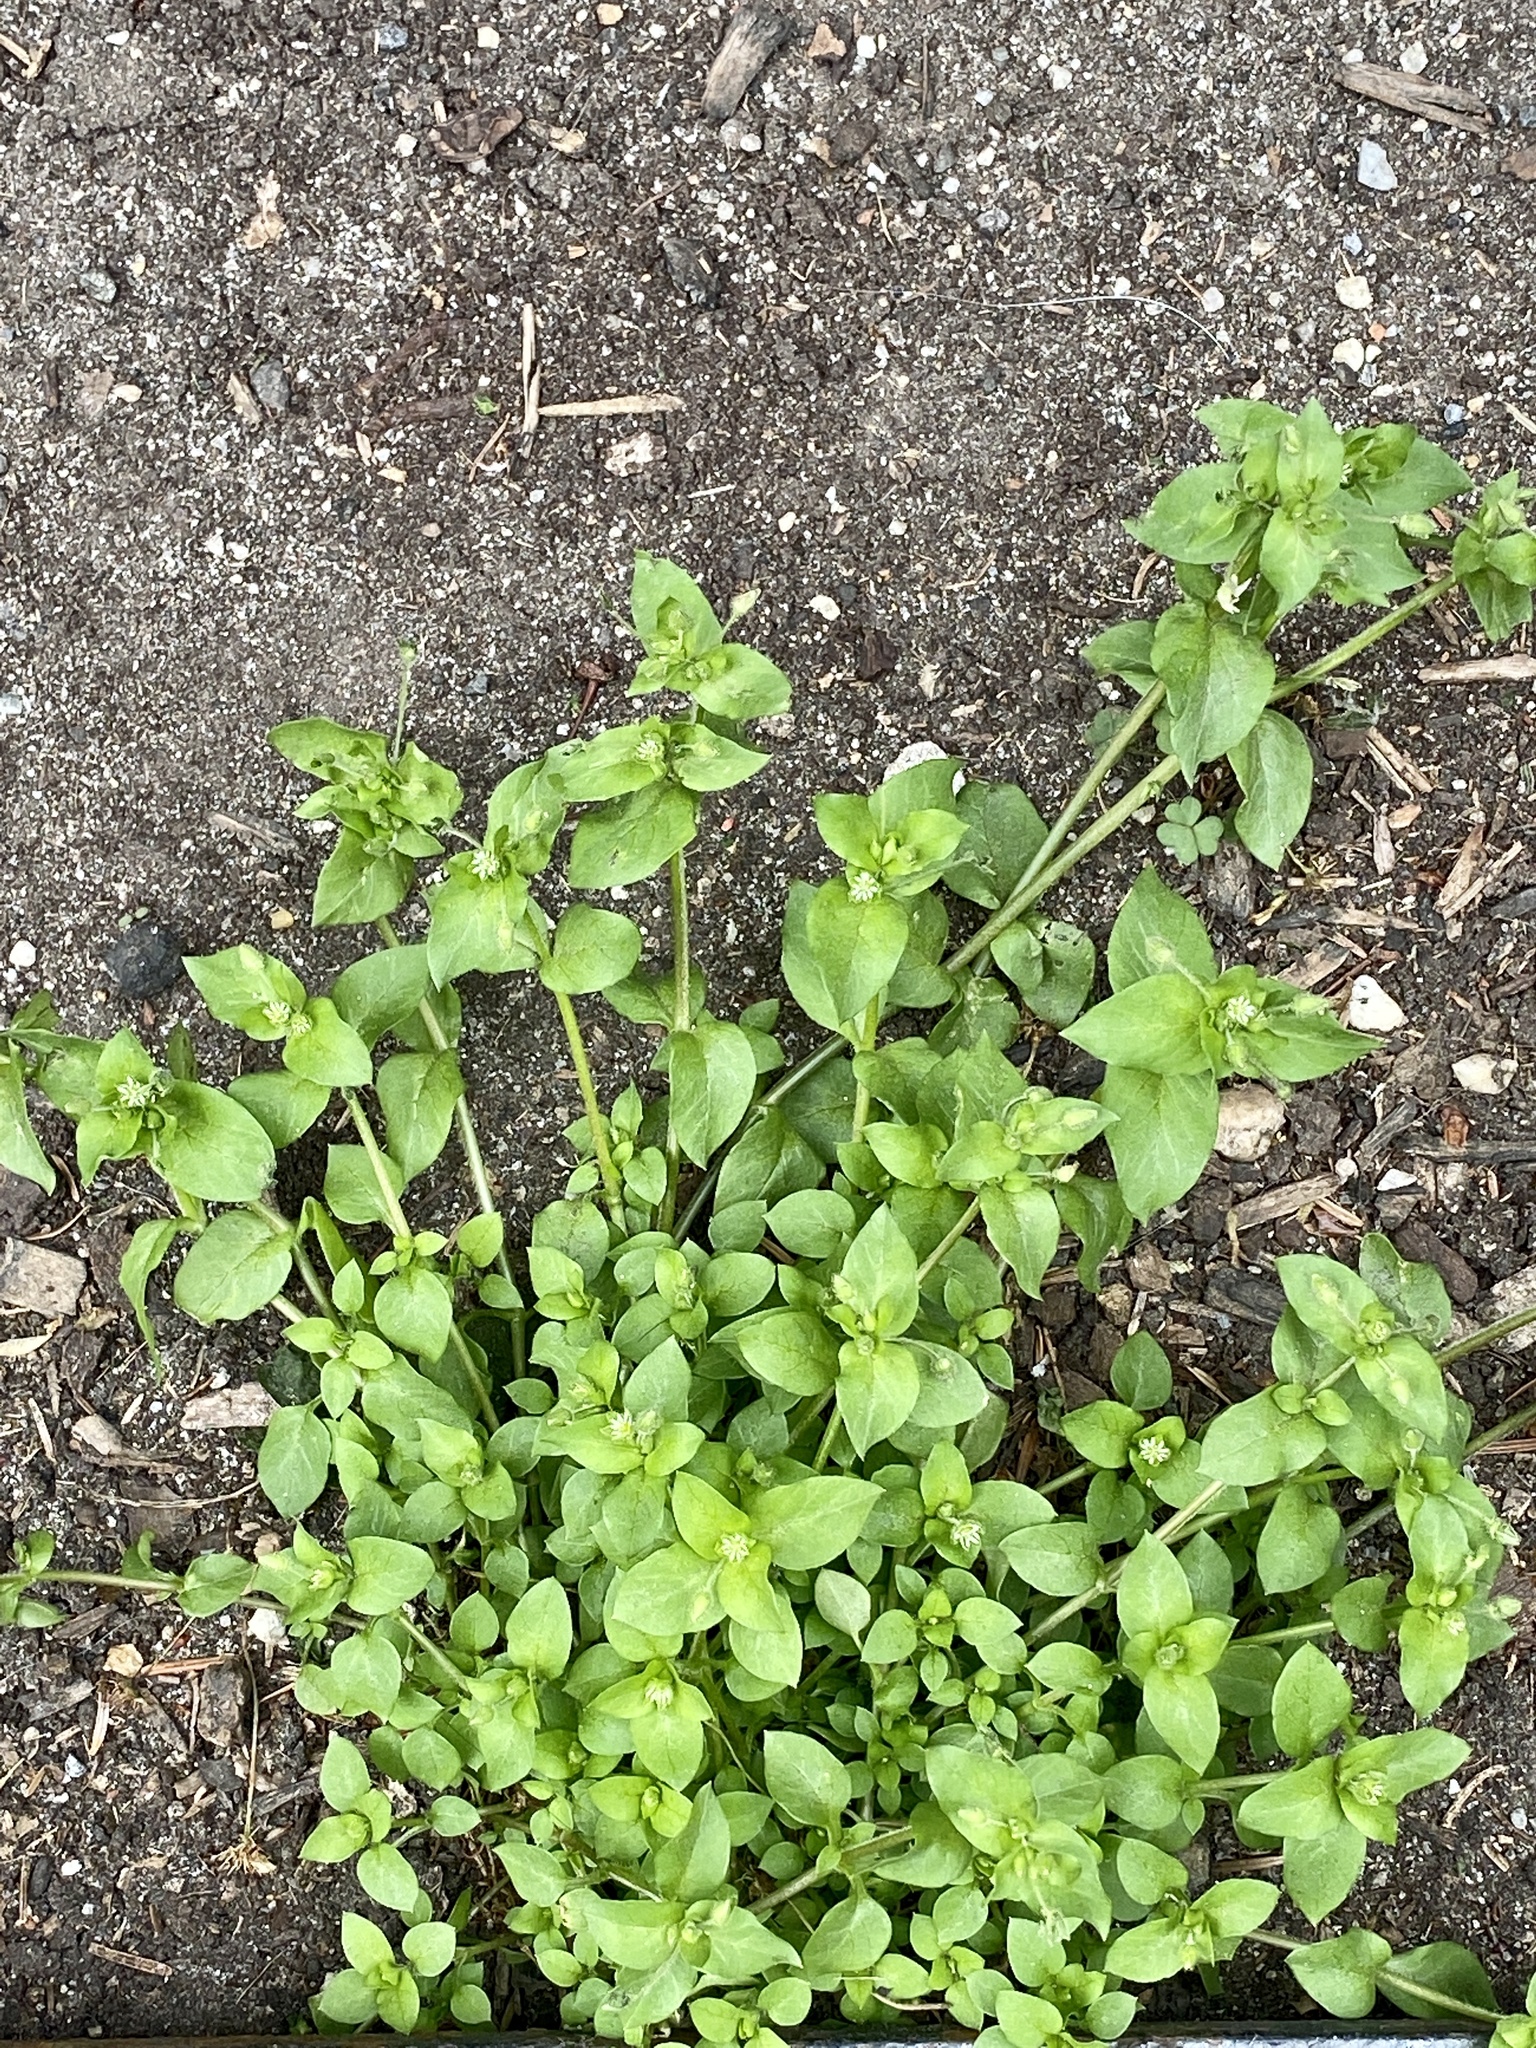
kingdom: Plantae
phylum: Tracheophyta
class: Magnoliopsida
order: Caryophyllales
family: Caryophyllaceae
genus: Stellaria
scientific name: Stellaria media
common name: Common chickweed
